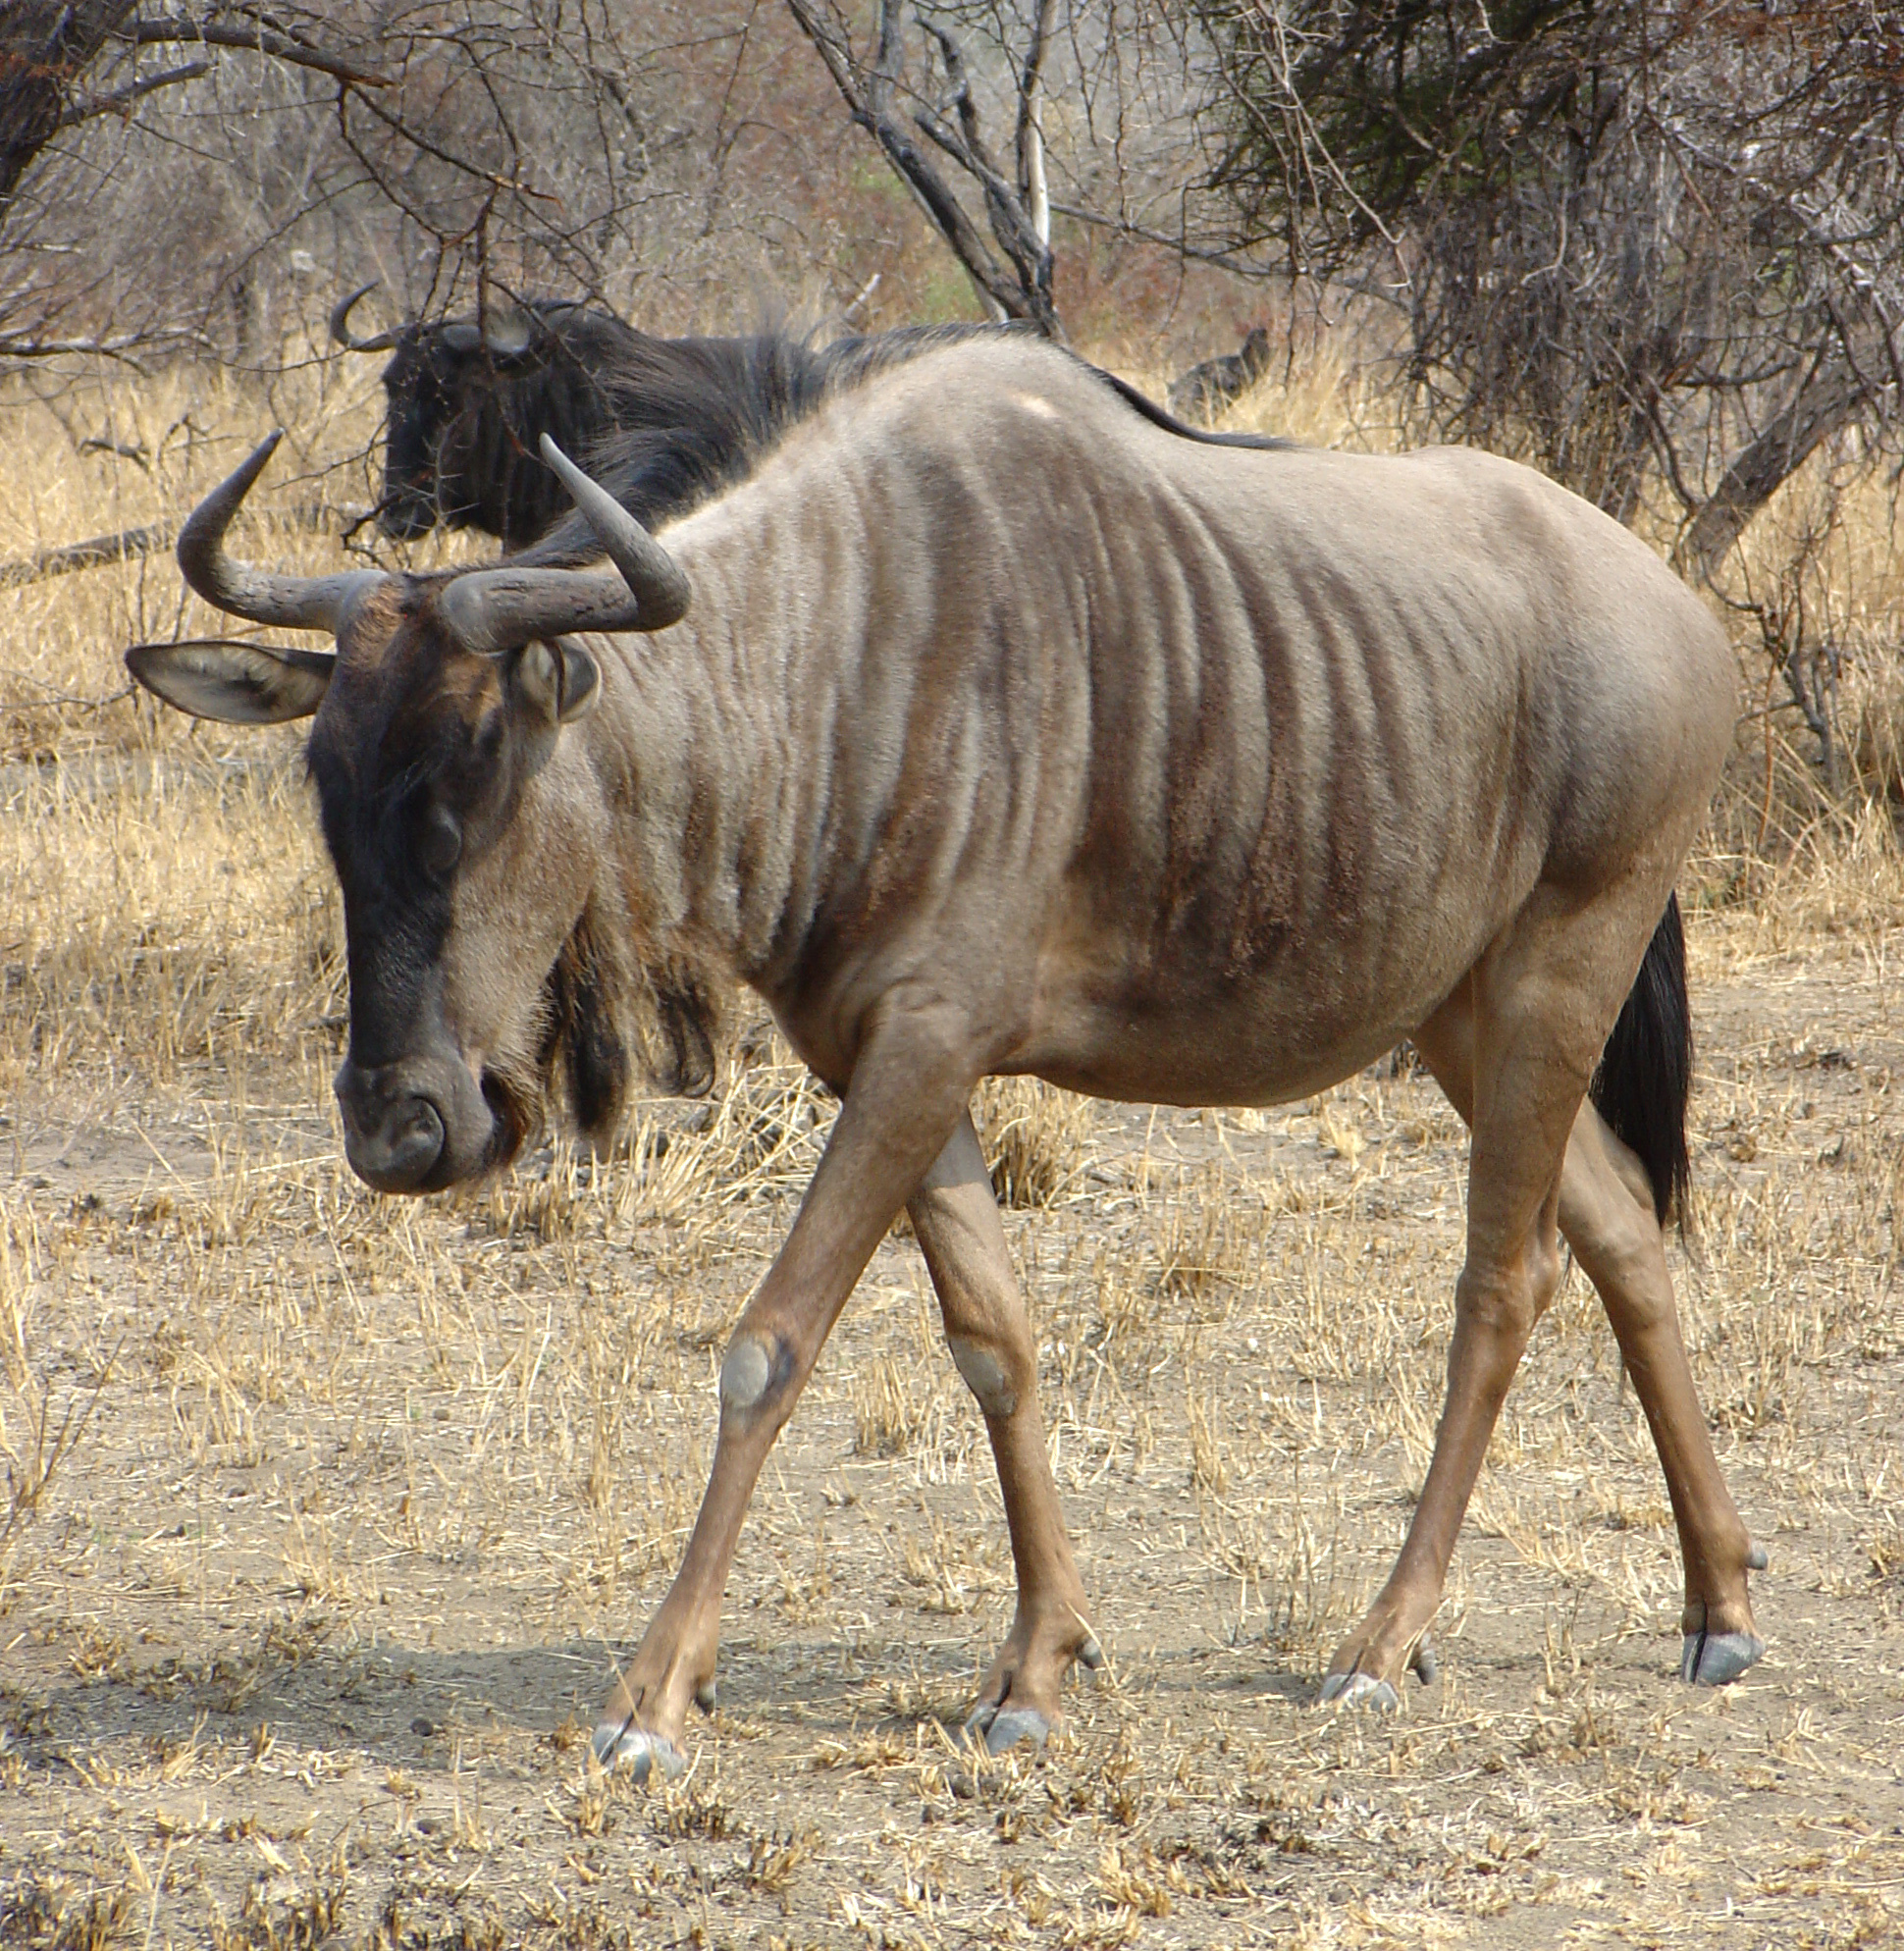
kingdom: Animalia
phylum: Chordata
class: Mammalia
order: Artiodactyla
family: Bovidae
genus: Connochaetes
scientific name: Connochaetes taurinus
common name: Blue wildebeest
